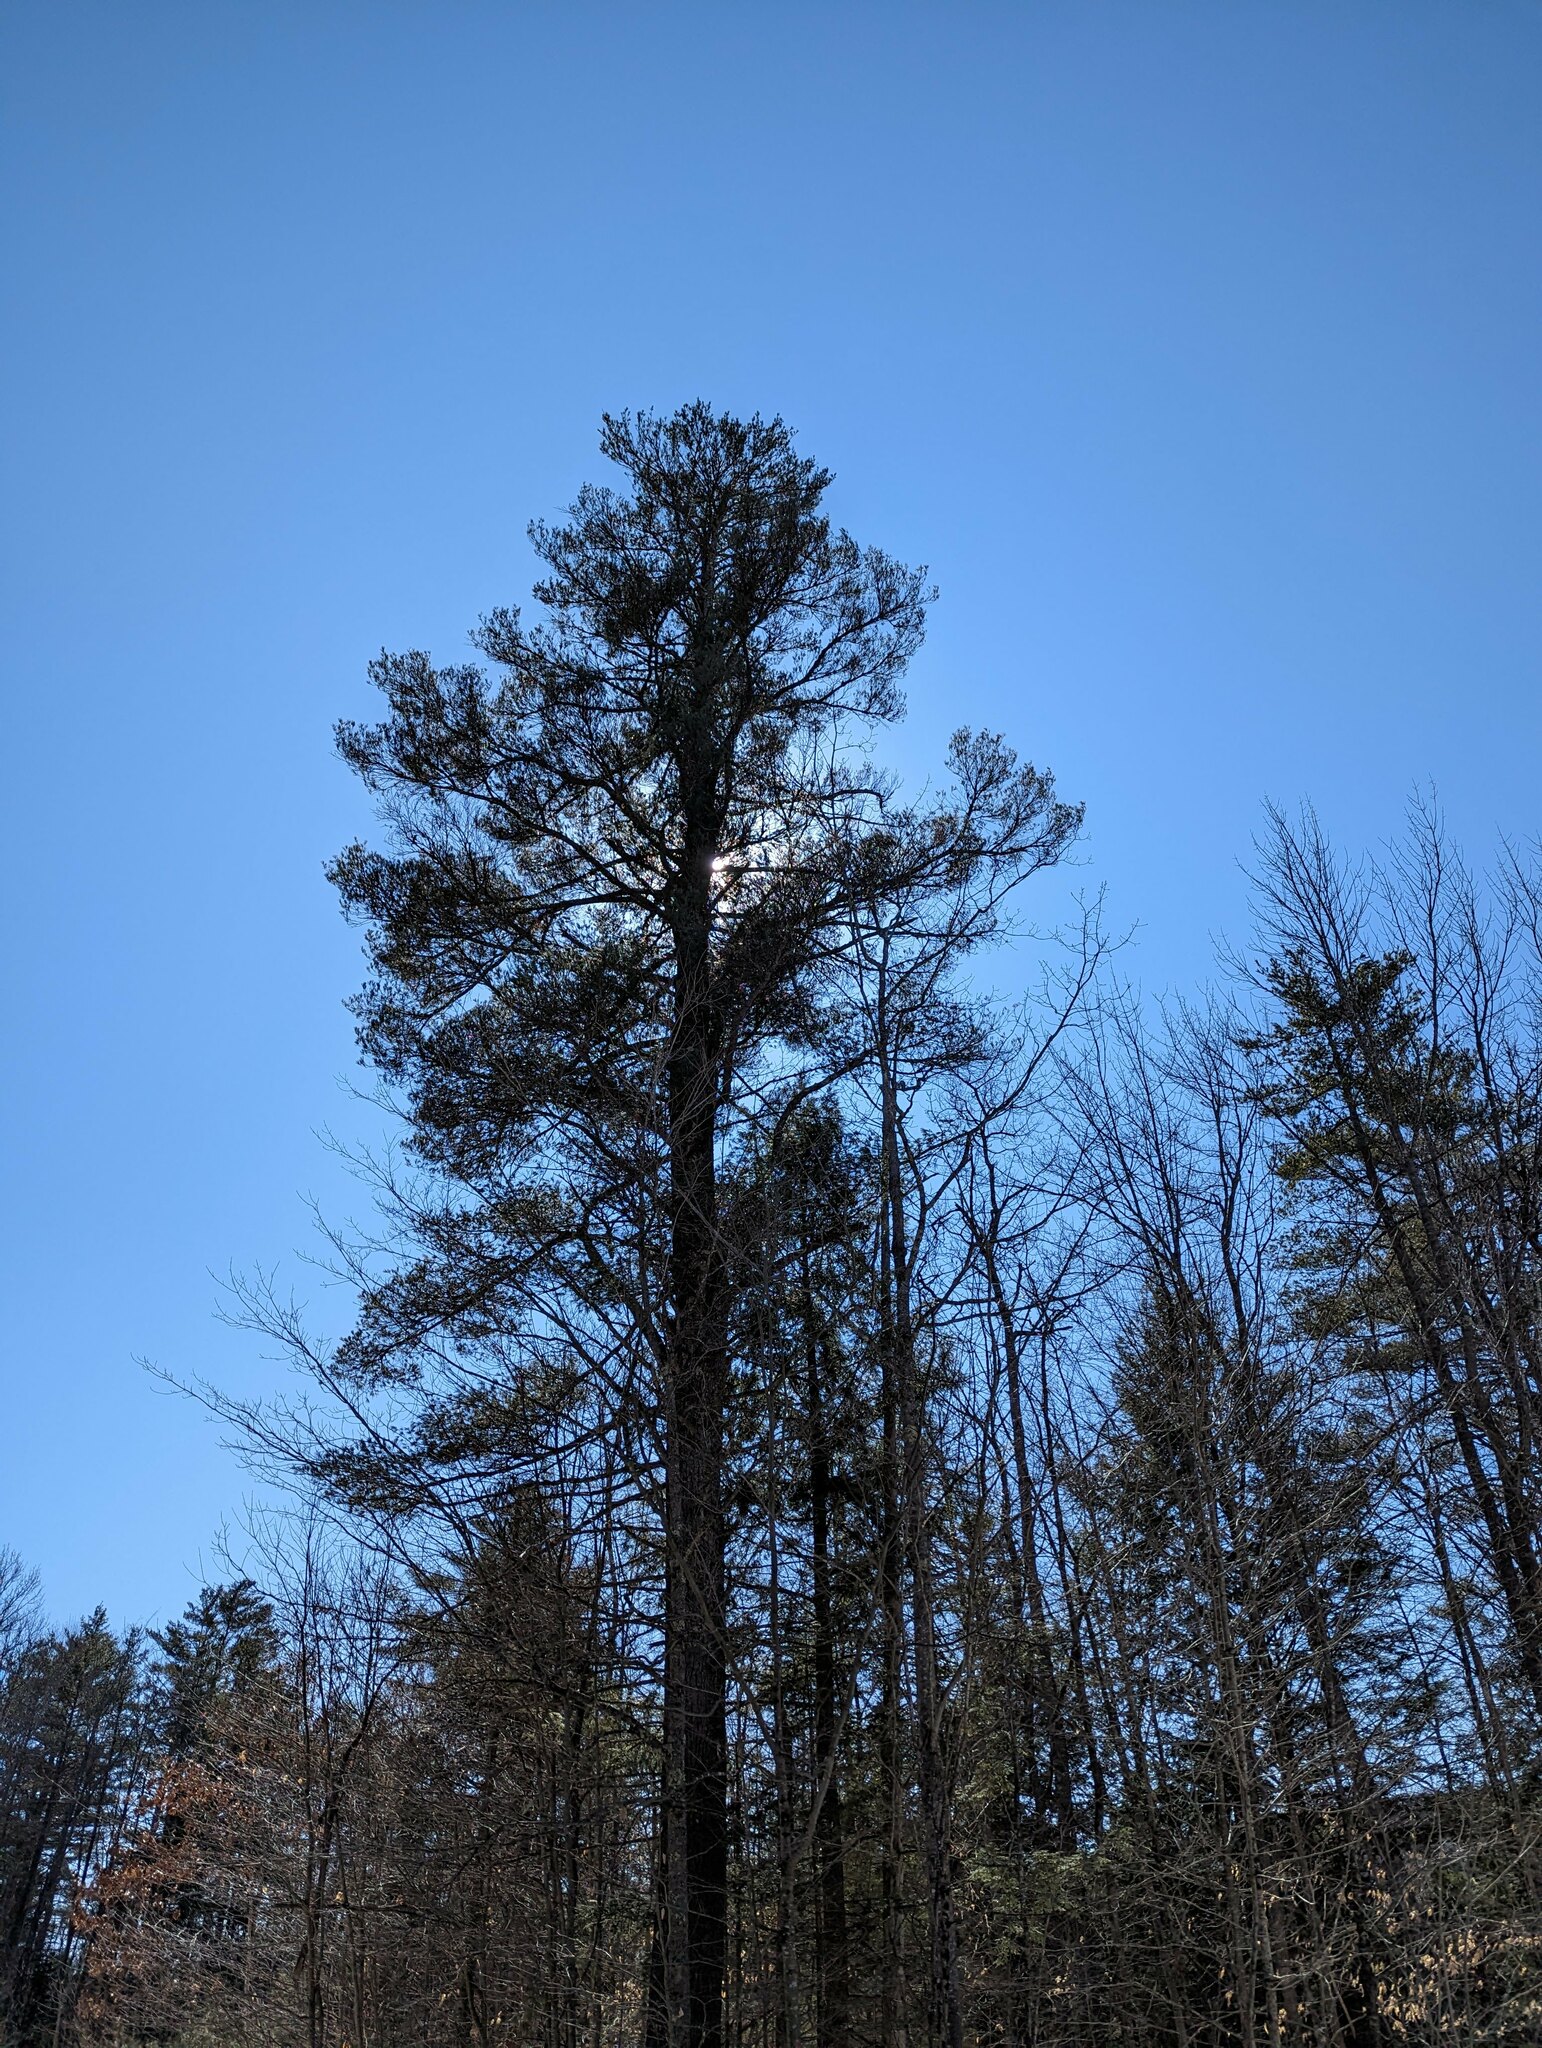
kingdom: Plantae
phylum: Tracheophyta
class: Pinopsida
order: Pinales
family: Pinaceae
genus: Pinus
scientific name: Pinus strobus
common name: Weymouth pine
